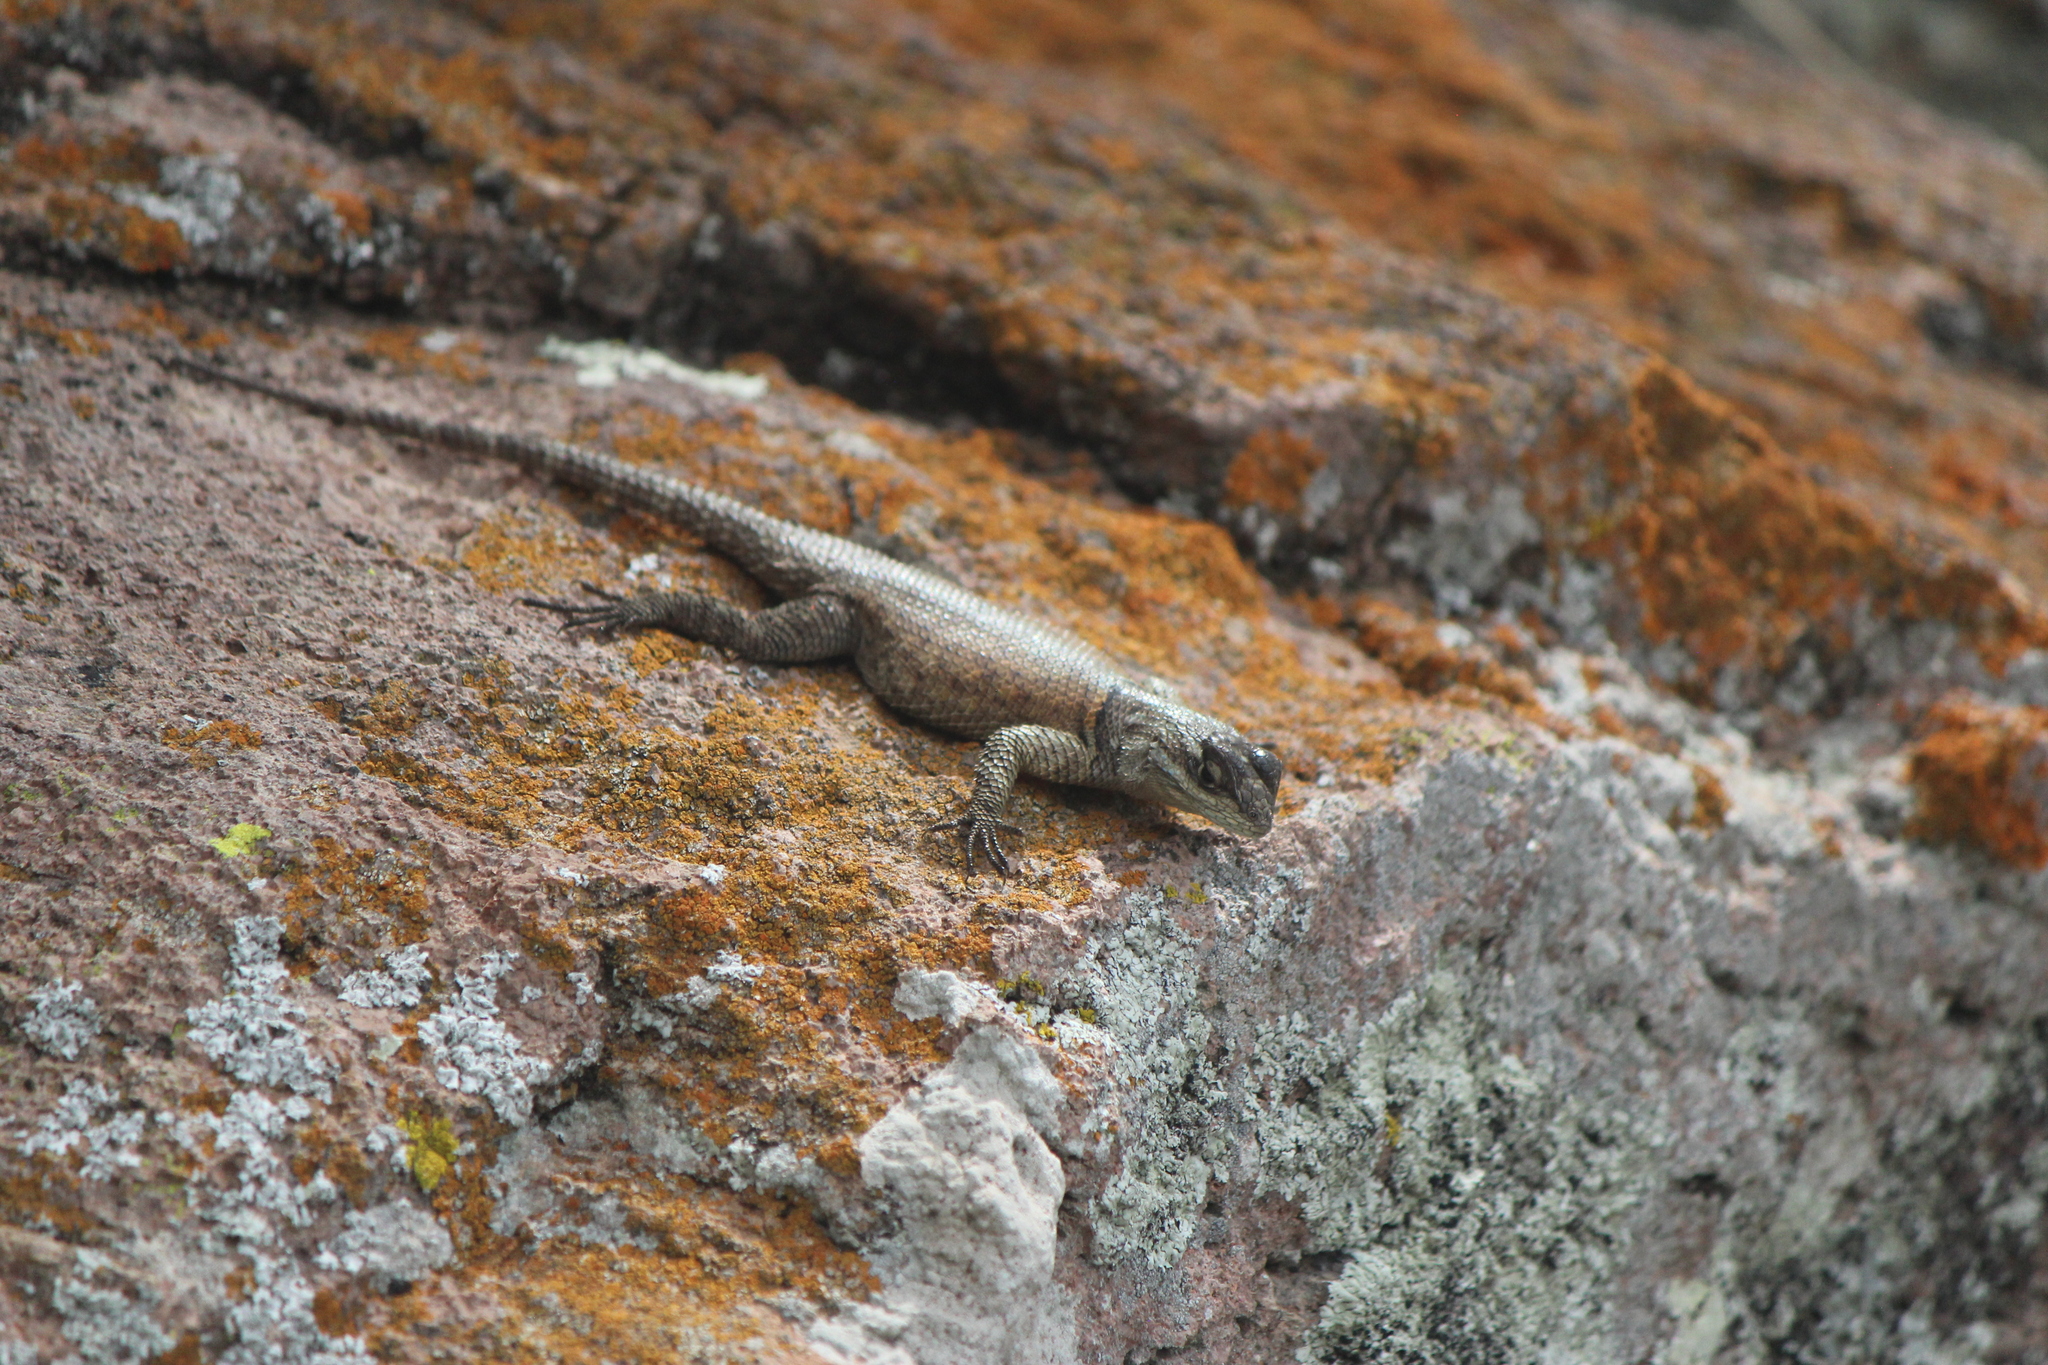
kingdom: Animalia
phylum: Chordata
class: Squamata
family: Phrynosomatidae
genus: Sceloporus
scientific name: Sceloporus minor
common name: Minor lizard
